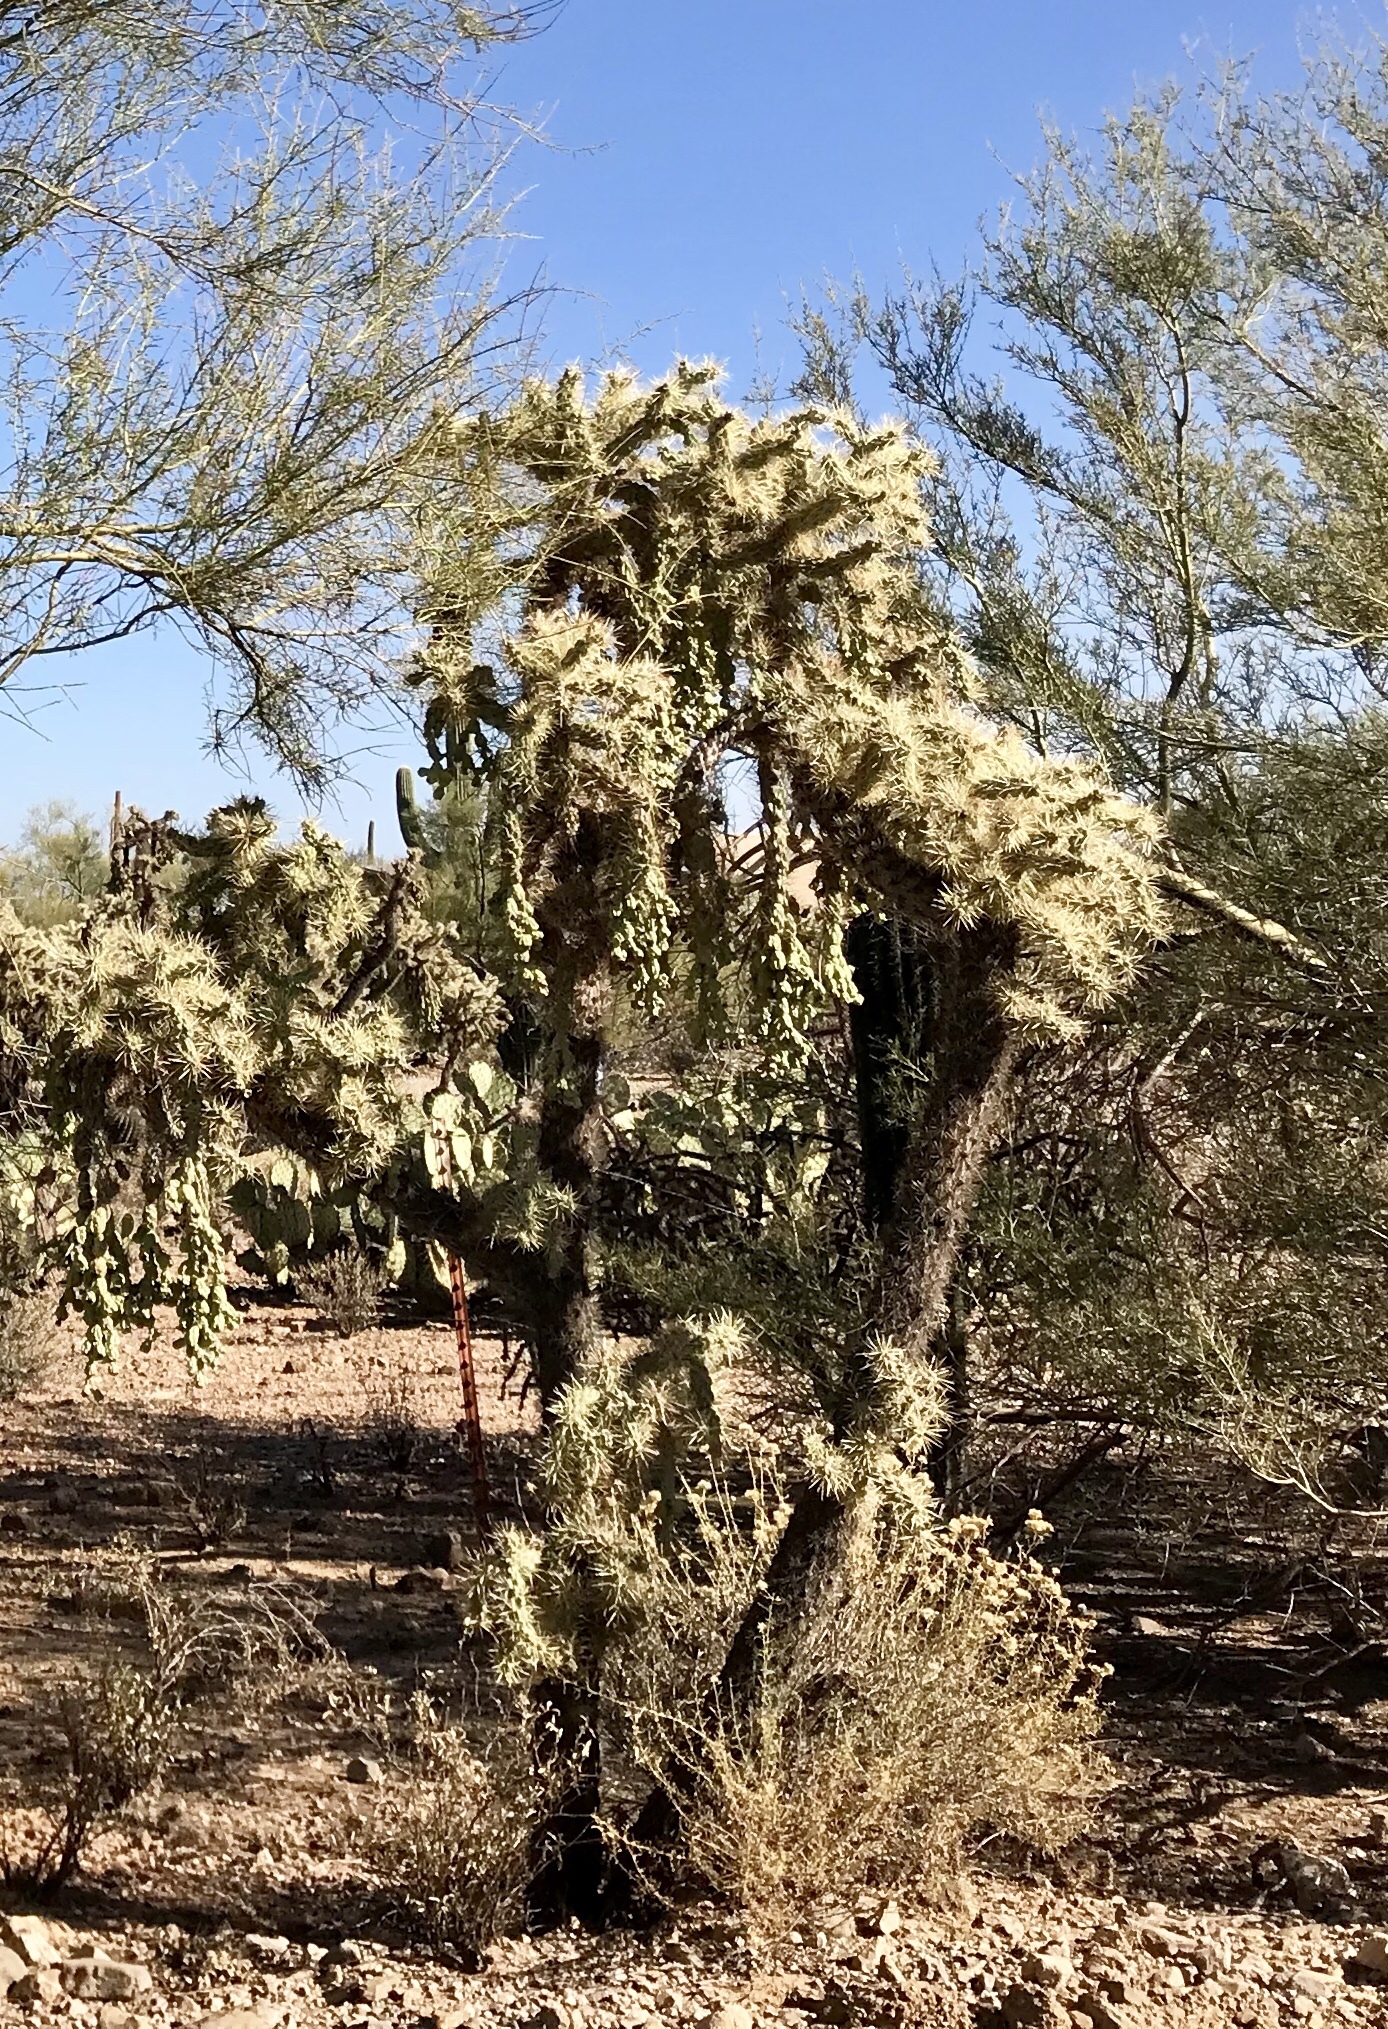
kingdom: Plantae
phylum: Tracheophyta
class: Magnoliopsida
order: Caryophyllales
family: Cactaceae
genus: Cylindropuntia
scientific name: Cylindropuntia fulgida
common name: Jumping cholla
